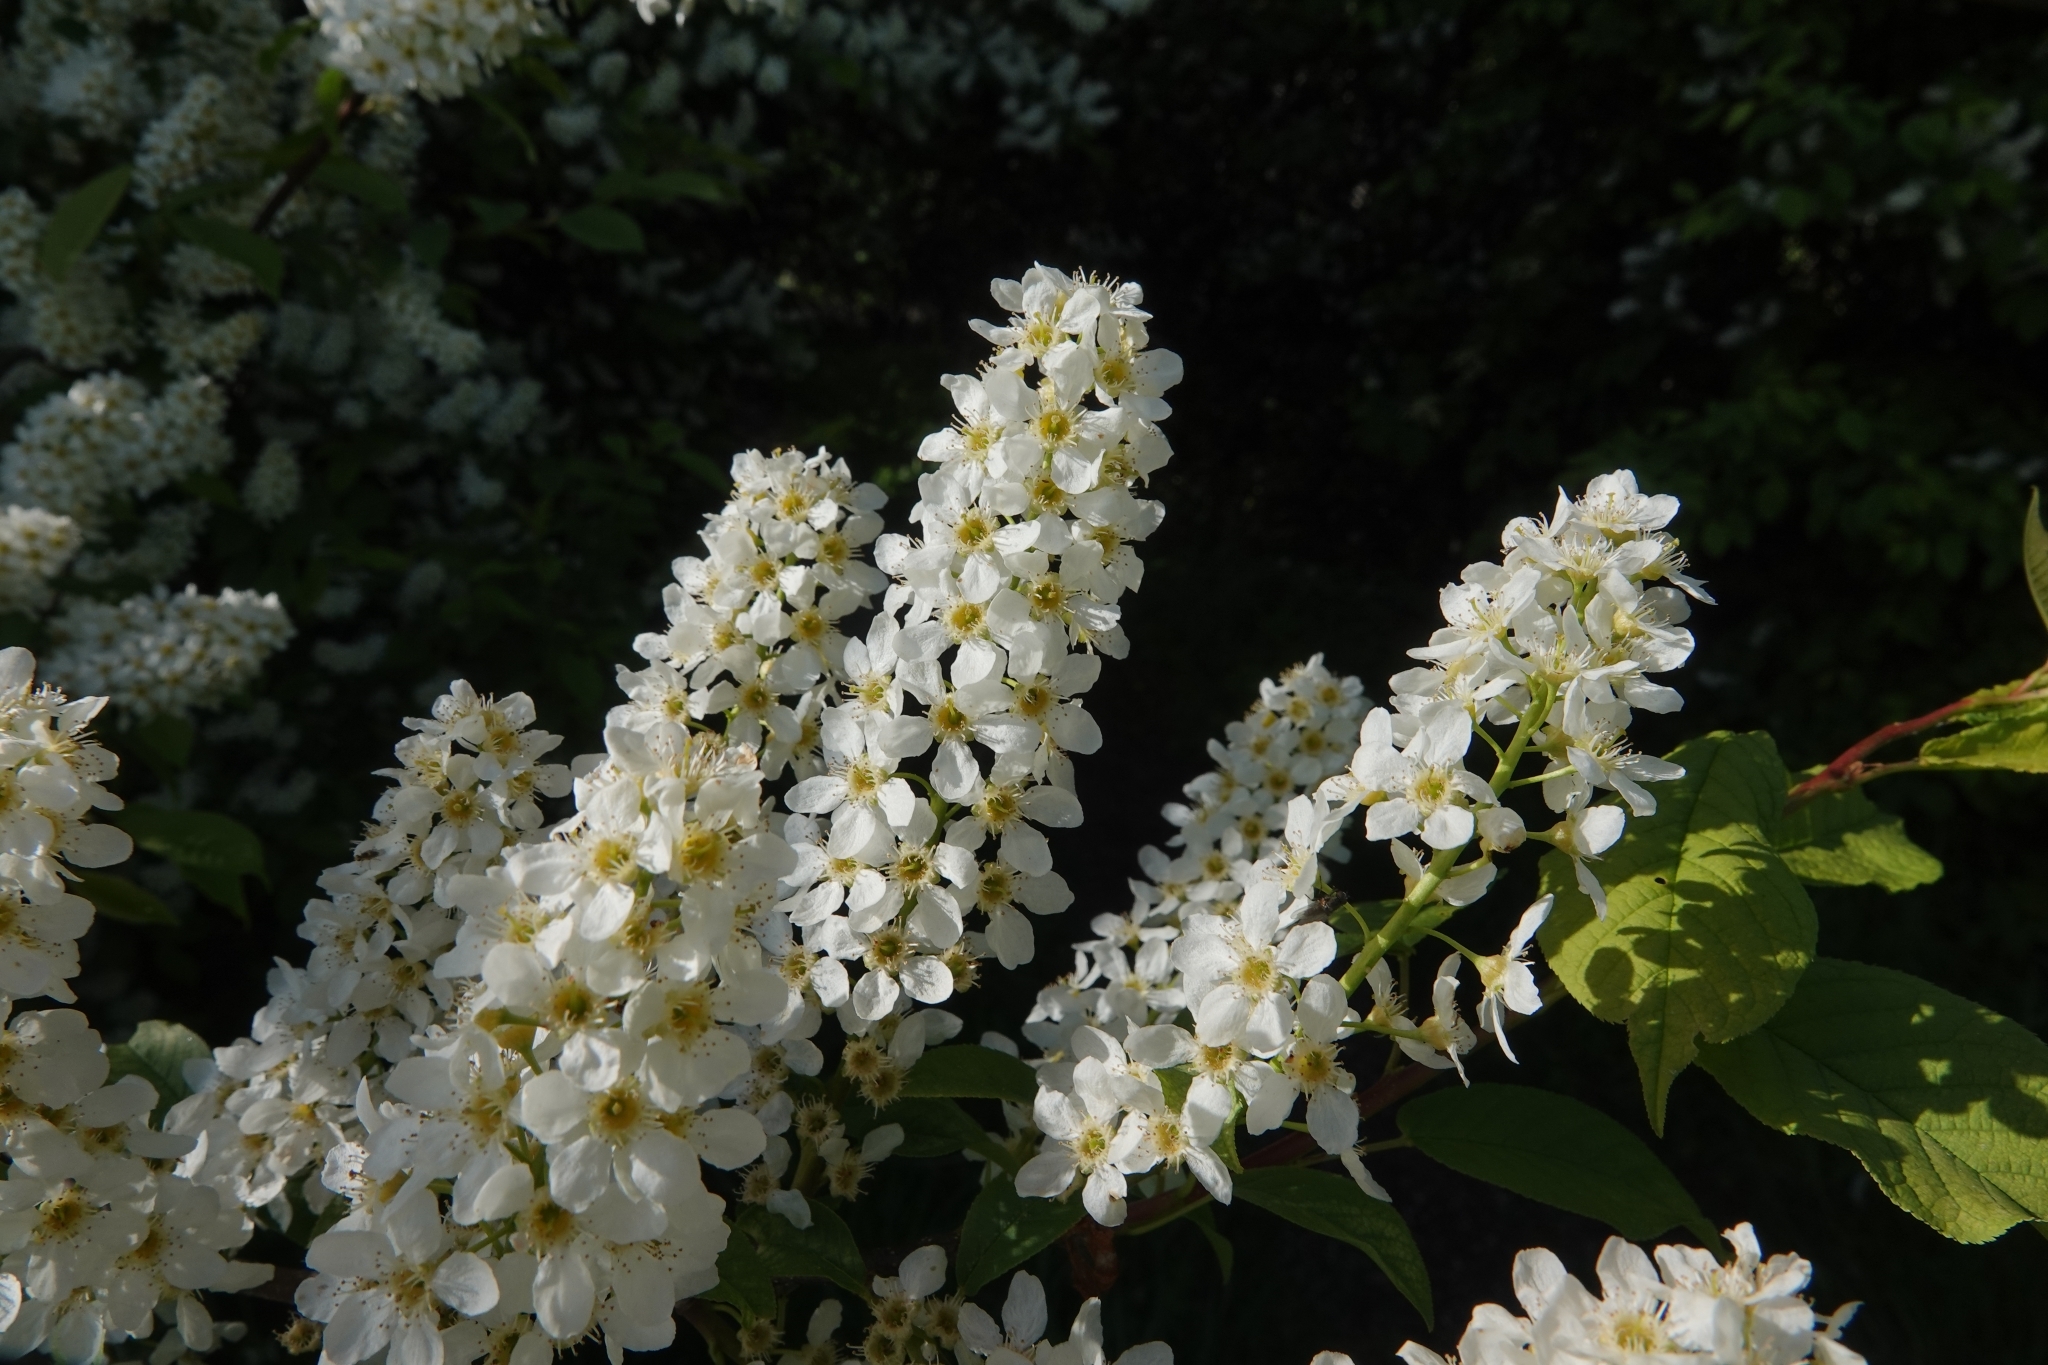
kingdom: Plantae
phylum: Tracheophyta
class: Magnoliopsida
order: Rosales
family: Rosaceae
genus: Prunus
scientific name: Prunus padus
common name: Bird cherry
